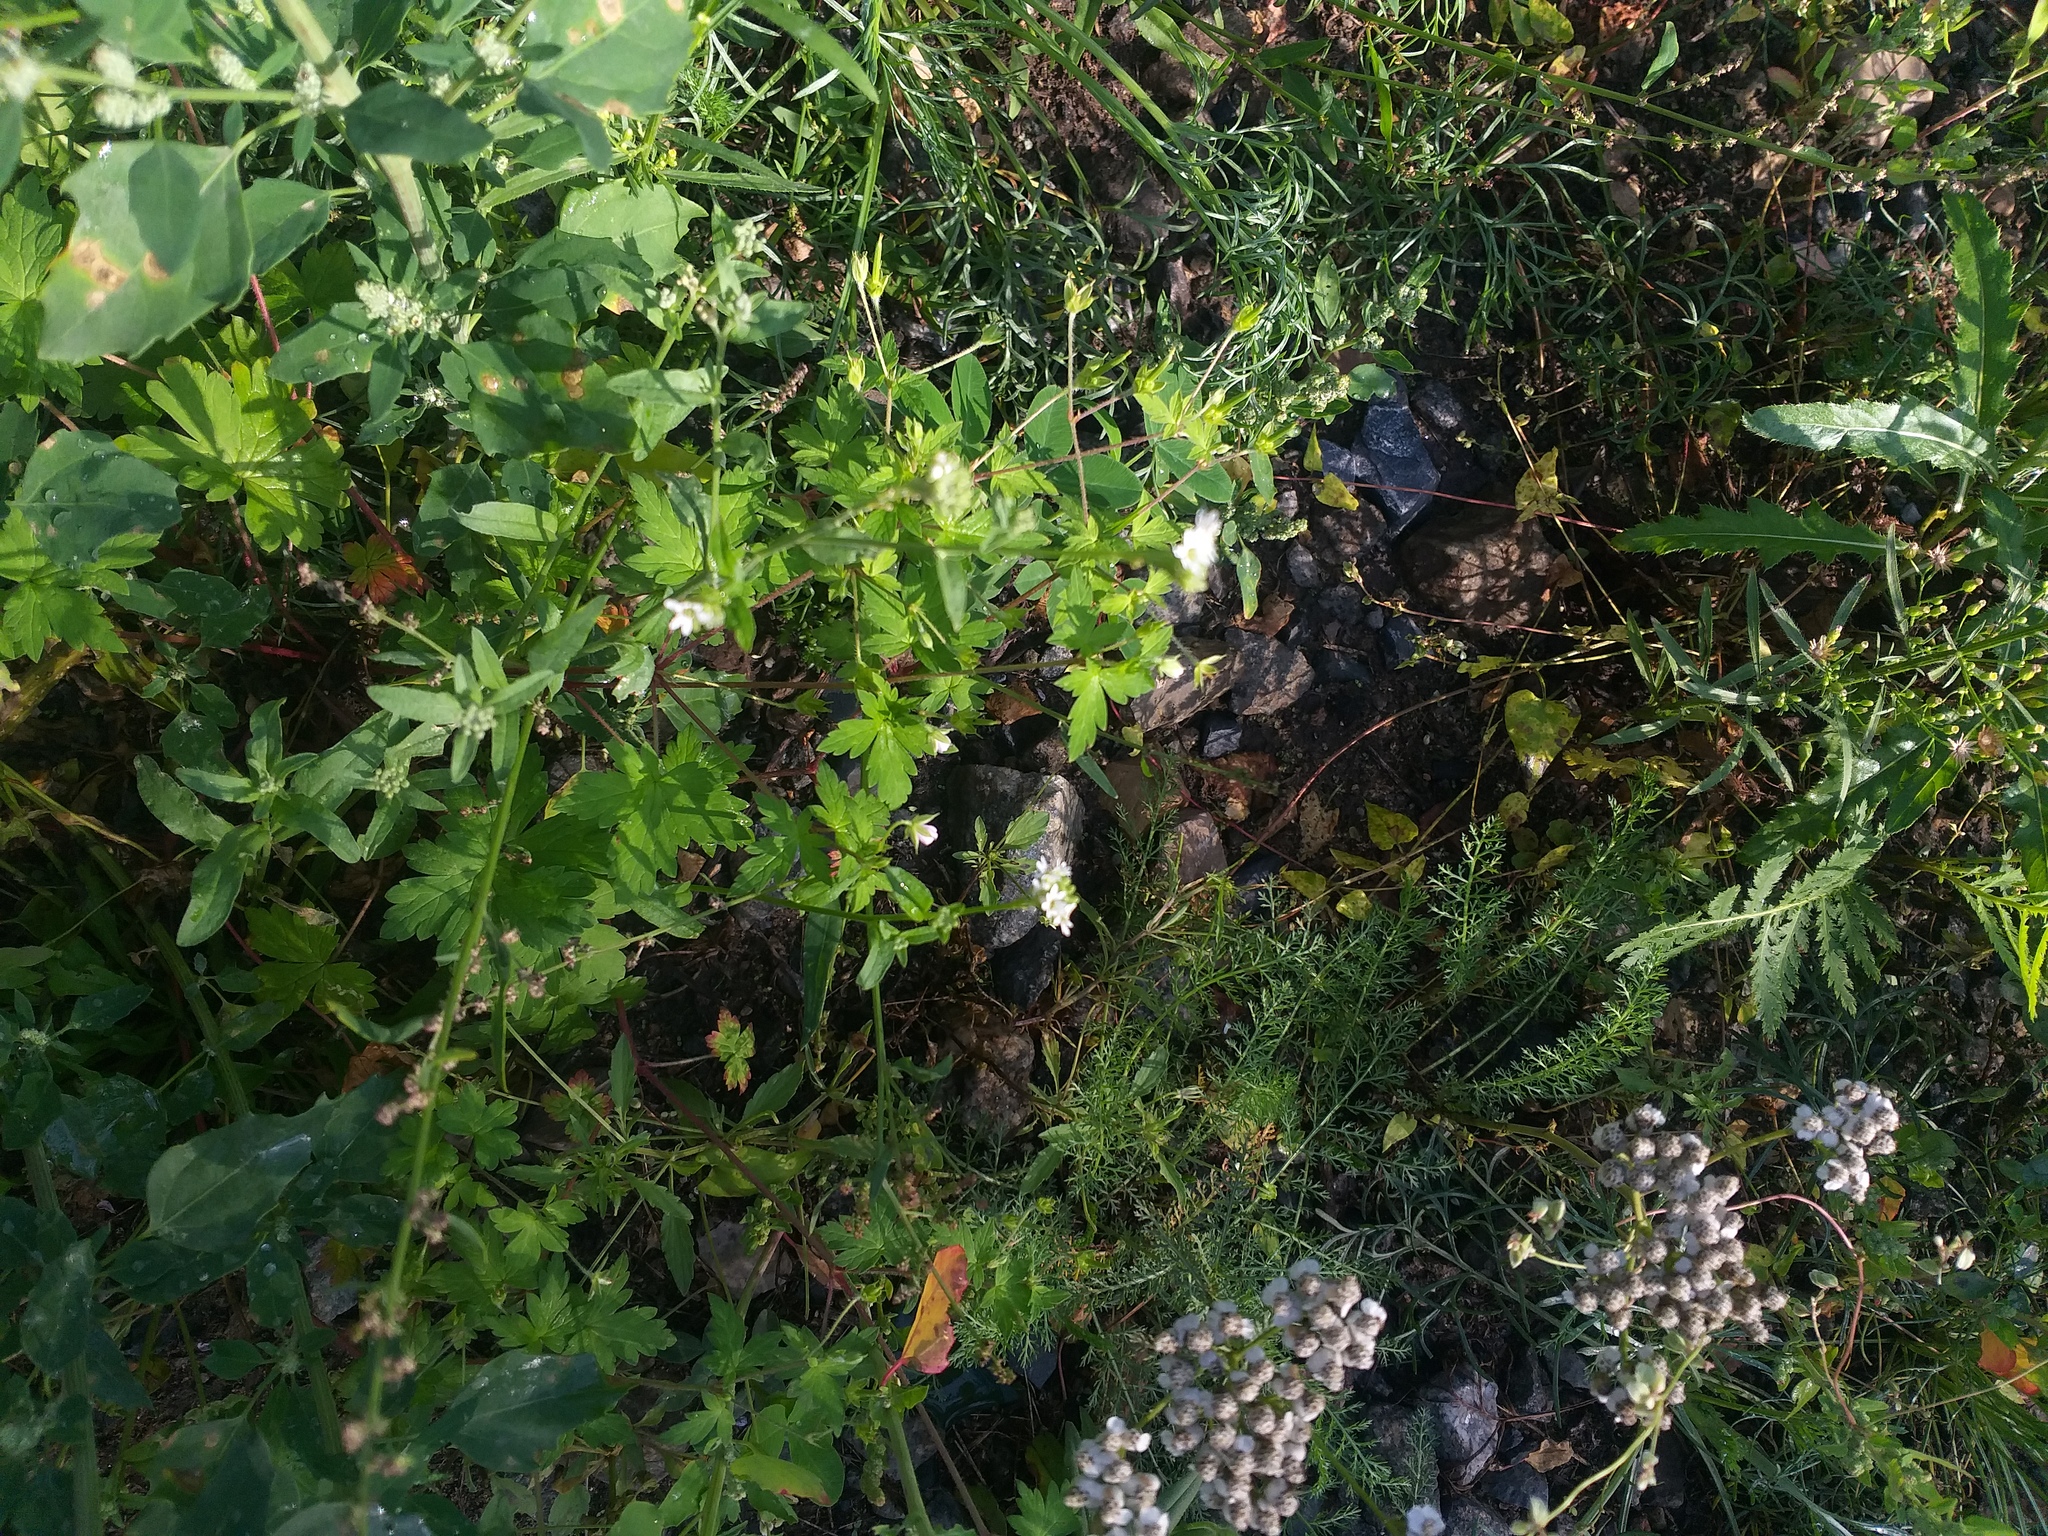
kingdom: Plantae
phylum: Tracheophyta
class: Magnoliopsida
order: Geraniales
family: Geraniaceae
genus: Geranium
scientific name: Geranium sibiricum
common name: Siberian crane's-bill
